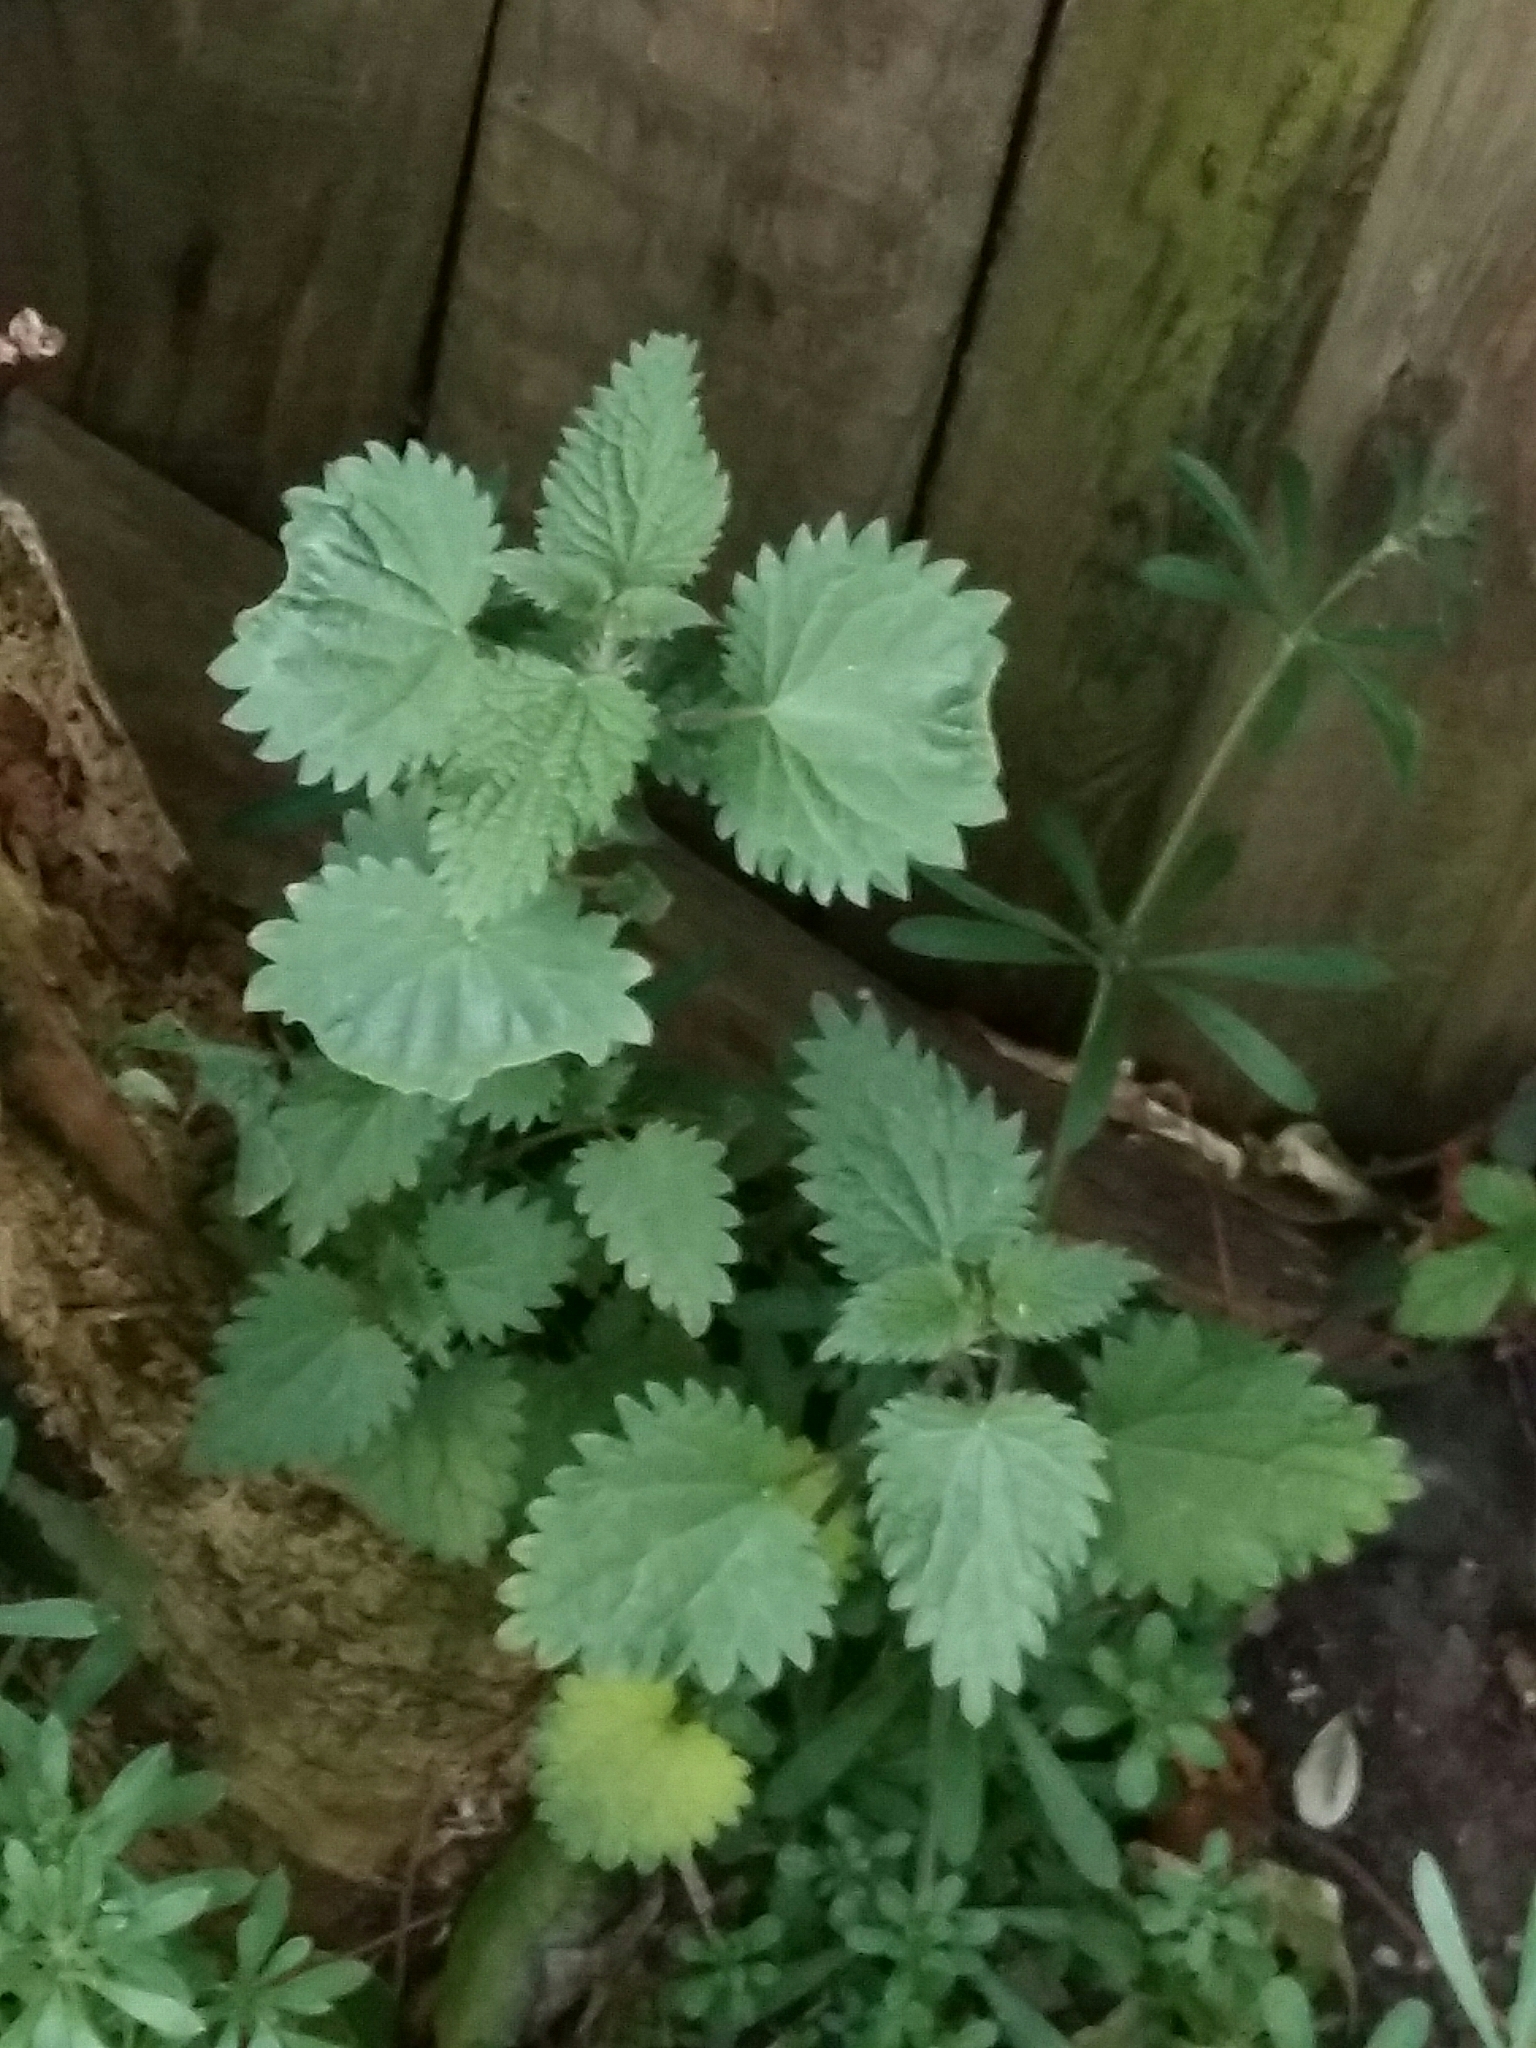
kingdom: Plantae
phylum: Tracheophyta
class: Magnoliopsida
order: Rosales
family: Urticaceae
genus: Urtica
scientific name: Urtica dioica
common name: Common nettle
